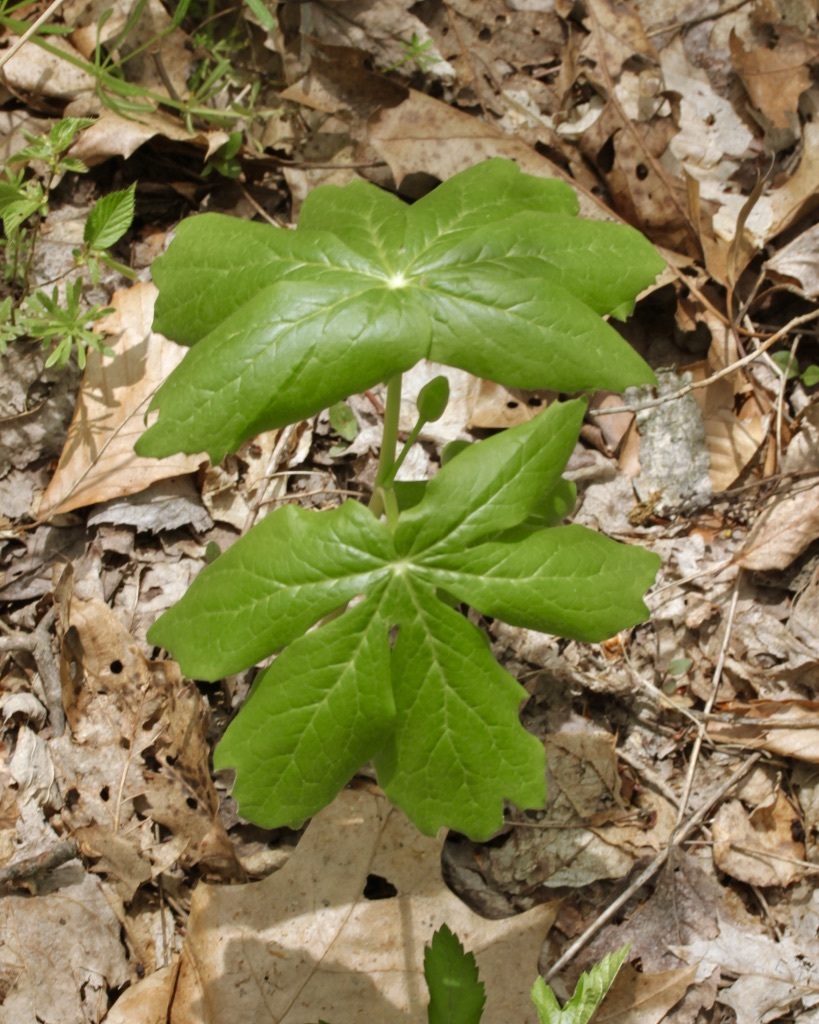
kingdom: Plantae
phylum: Tracheophyta
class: Magnoliopsida
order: Ranunculales
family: Berberidaceae
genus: Podophyllum
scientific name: Podophyllum peltatum
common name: Wild mandrake
